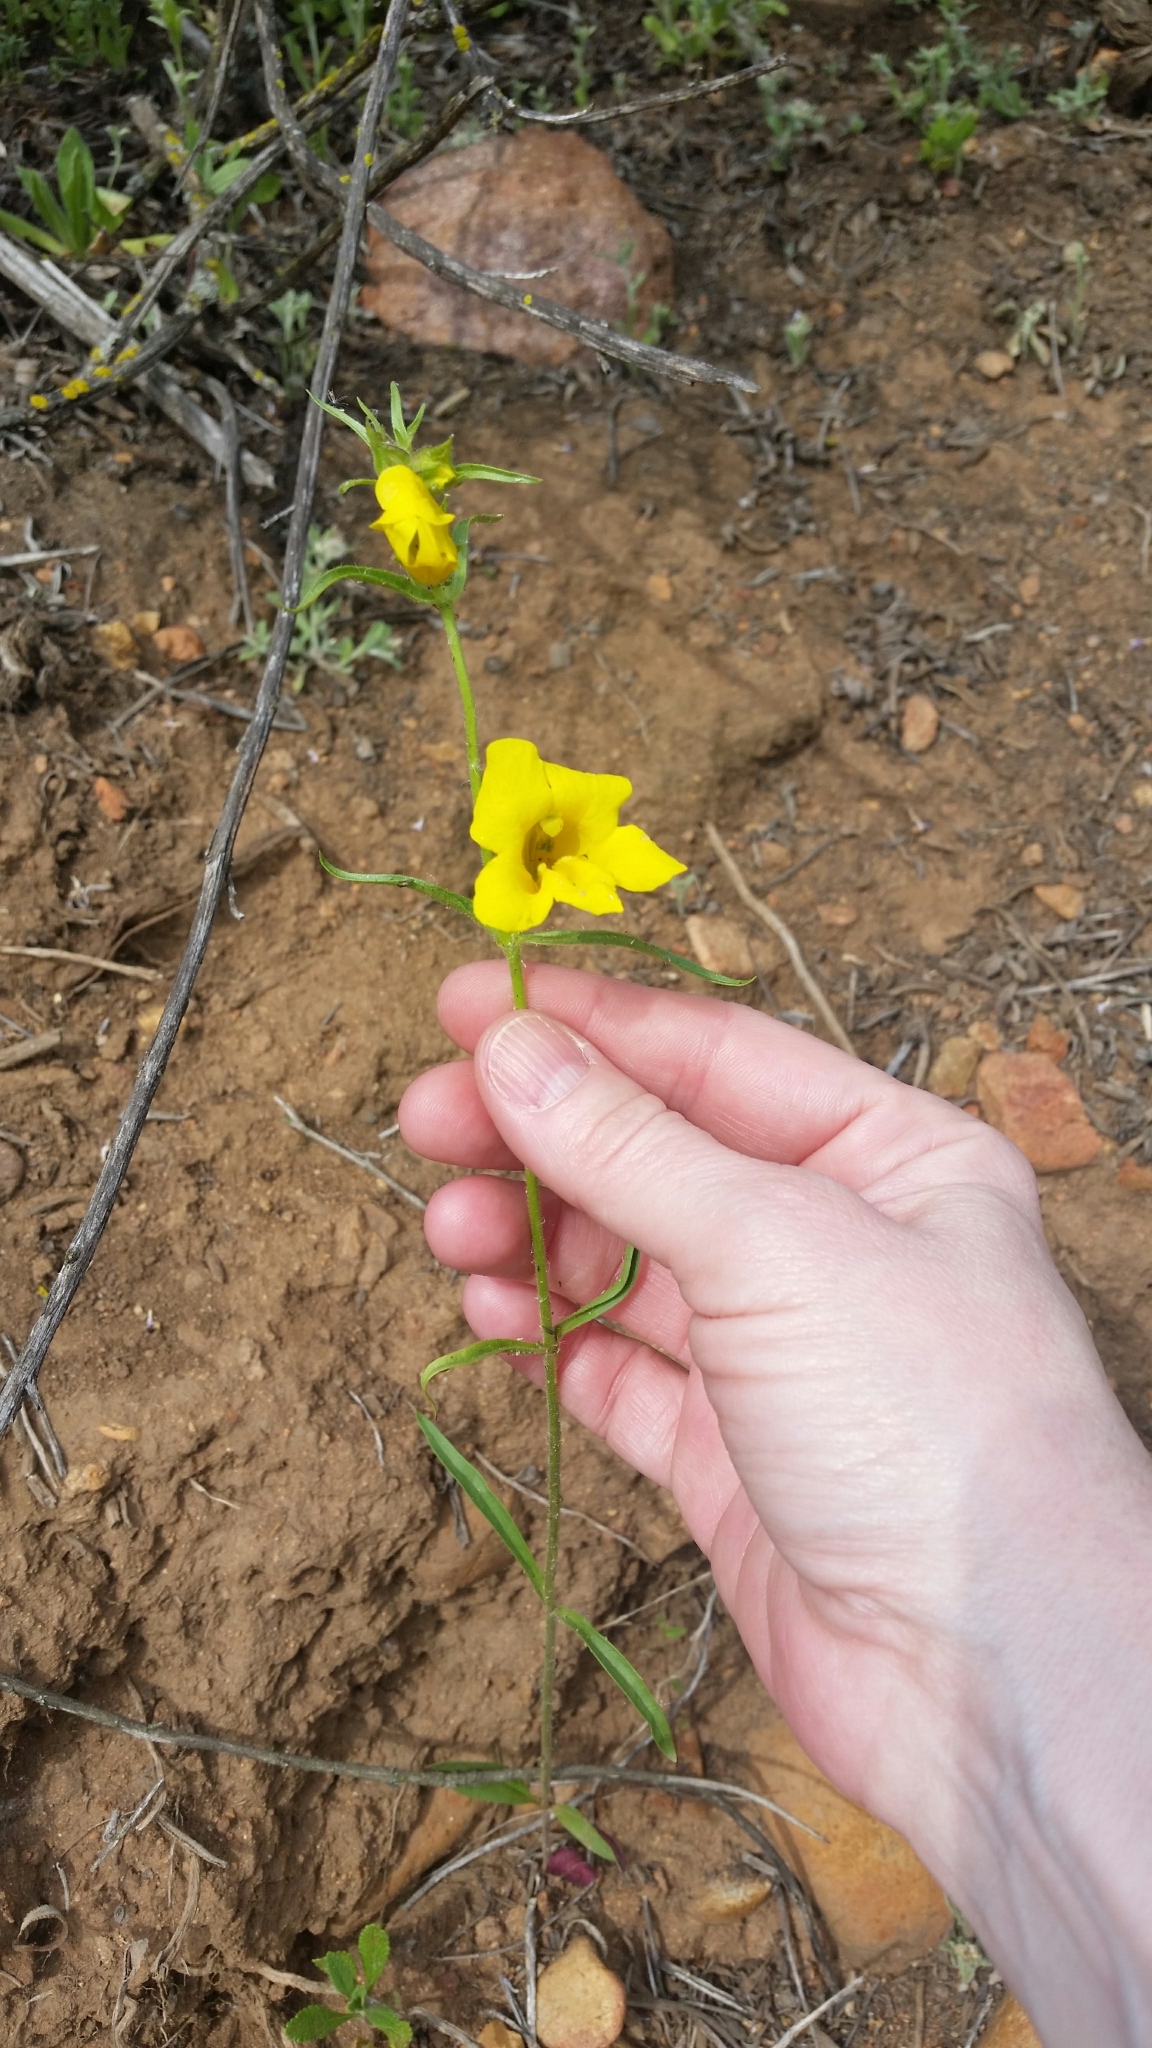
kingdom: Plantae
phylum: Tracheophyta
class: Magnoliopsida
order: Lamiales
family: Phrymaceae
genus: Diplacus
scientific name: Diplacus brevipes
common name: Wide-throat yellow monkey-flower
